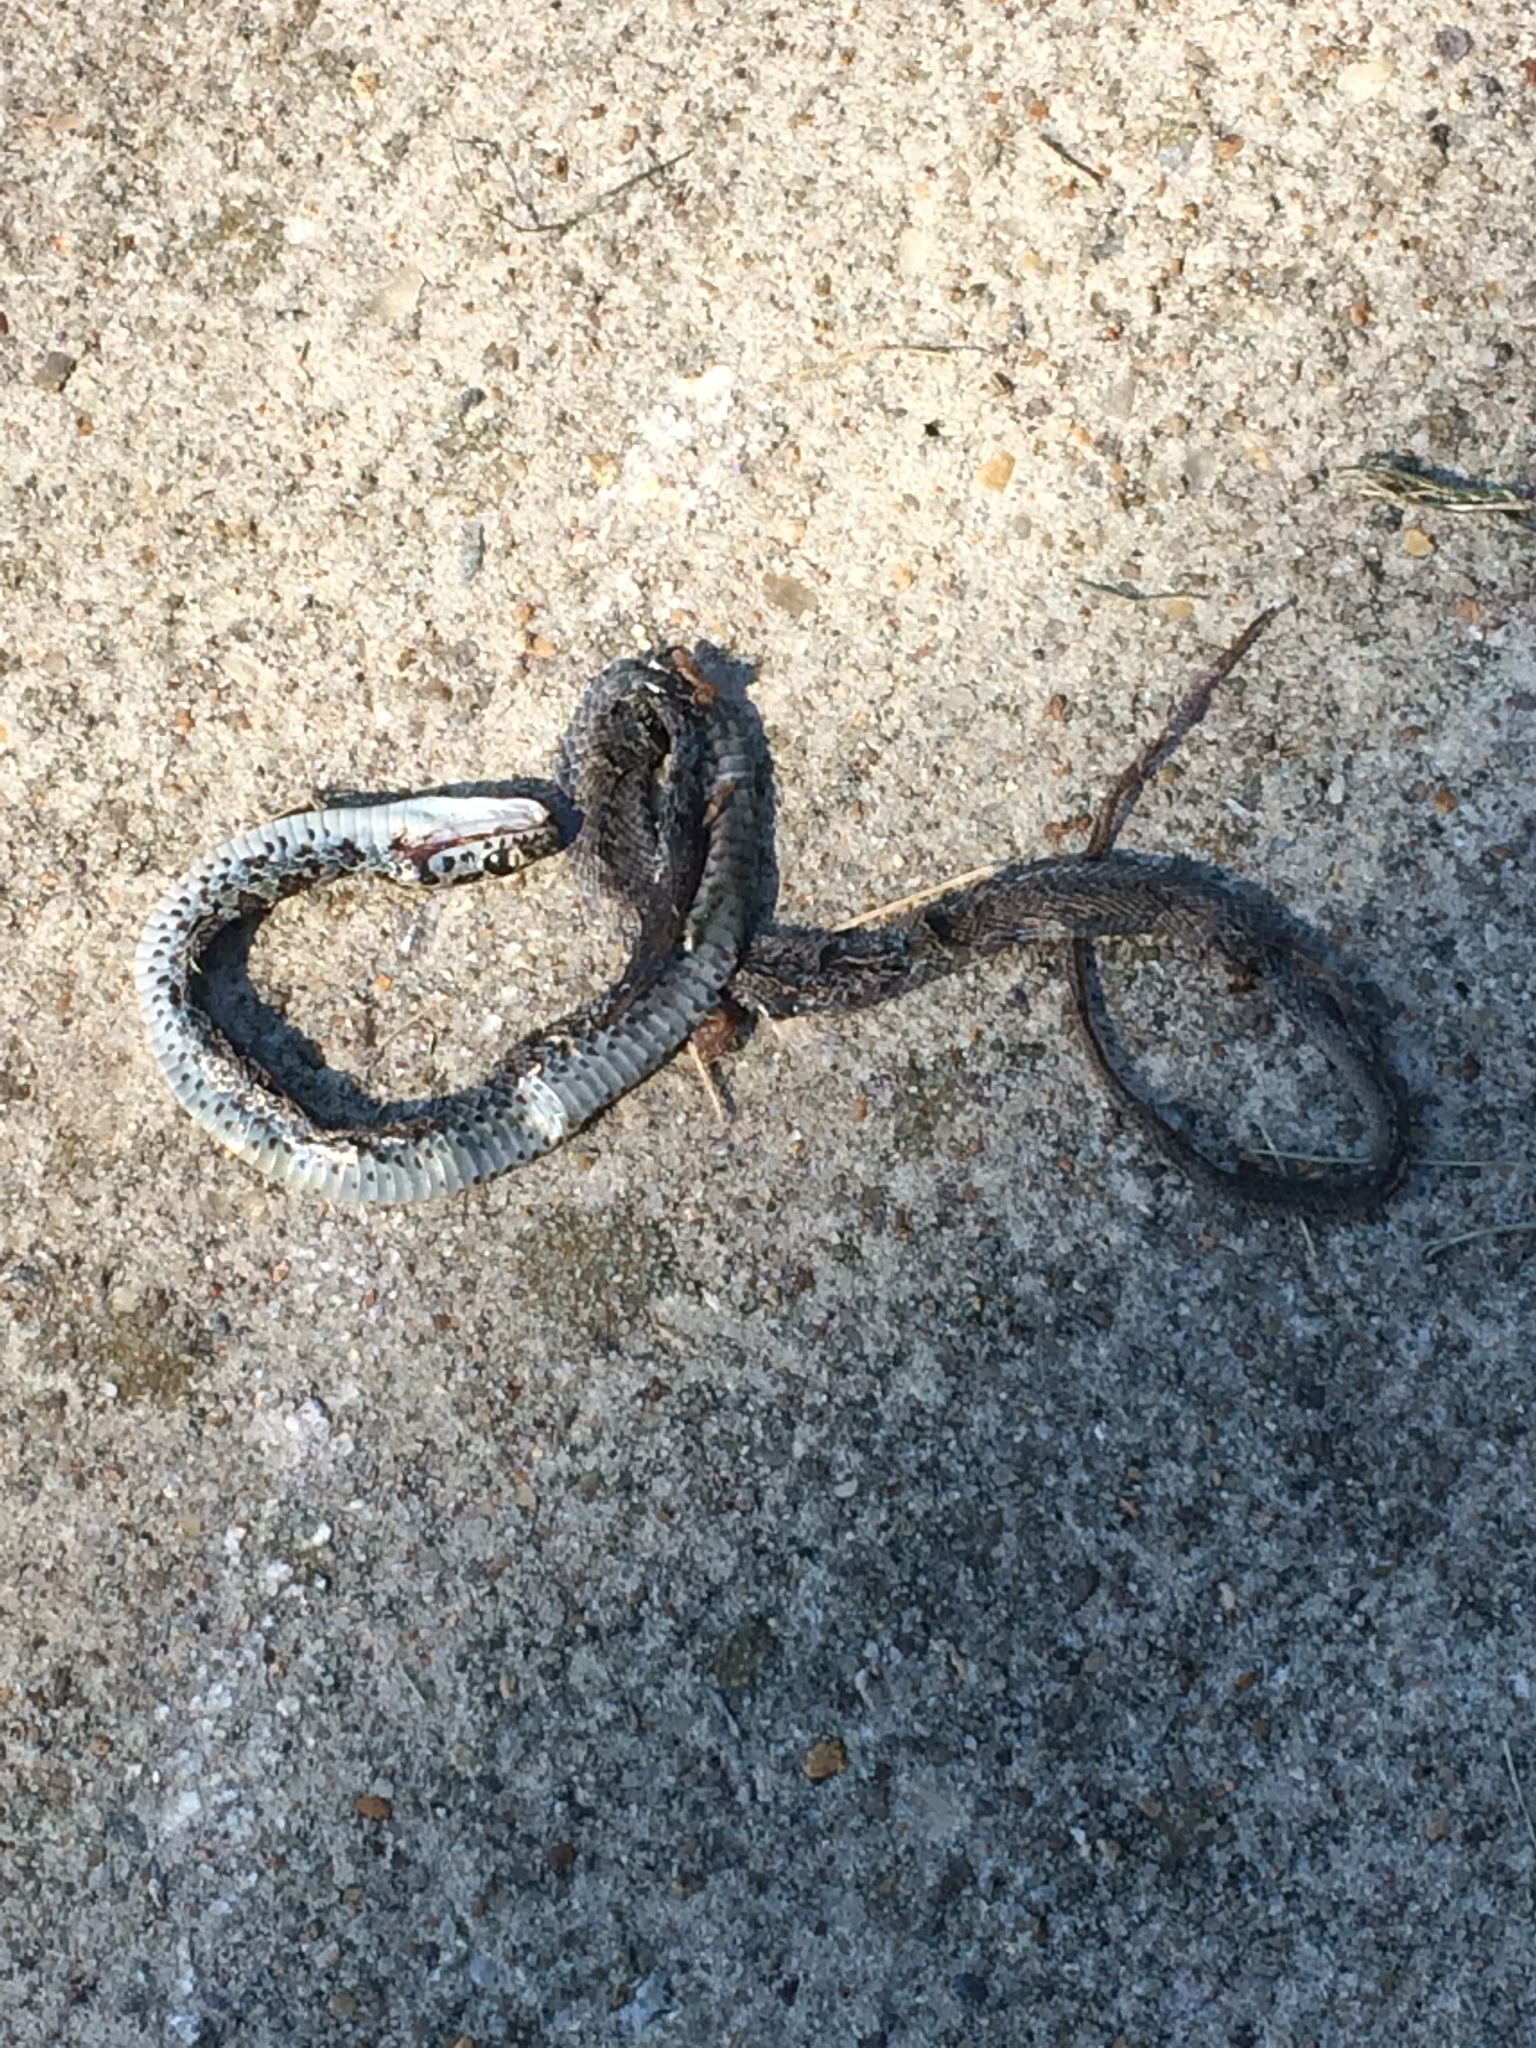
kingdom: Animalia
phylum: Chordata
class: Squamata
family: Colubridae
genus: Coluber
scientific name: Coluber constrictor
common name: Eastern racer
